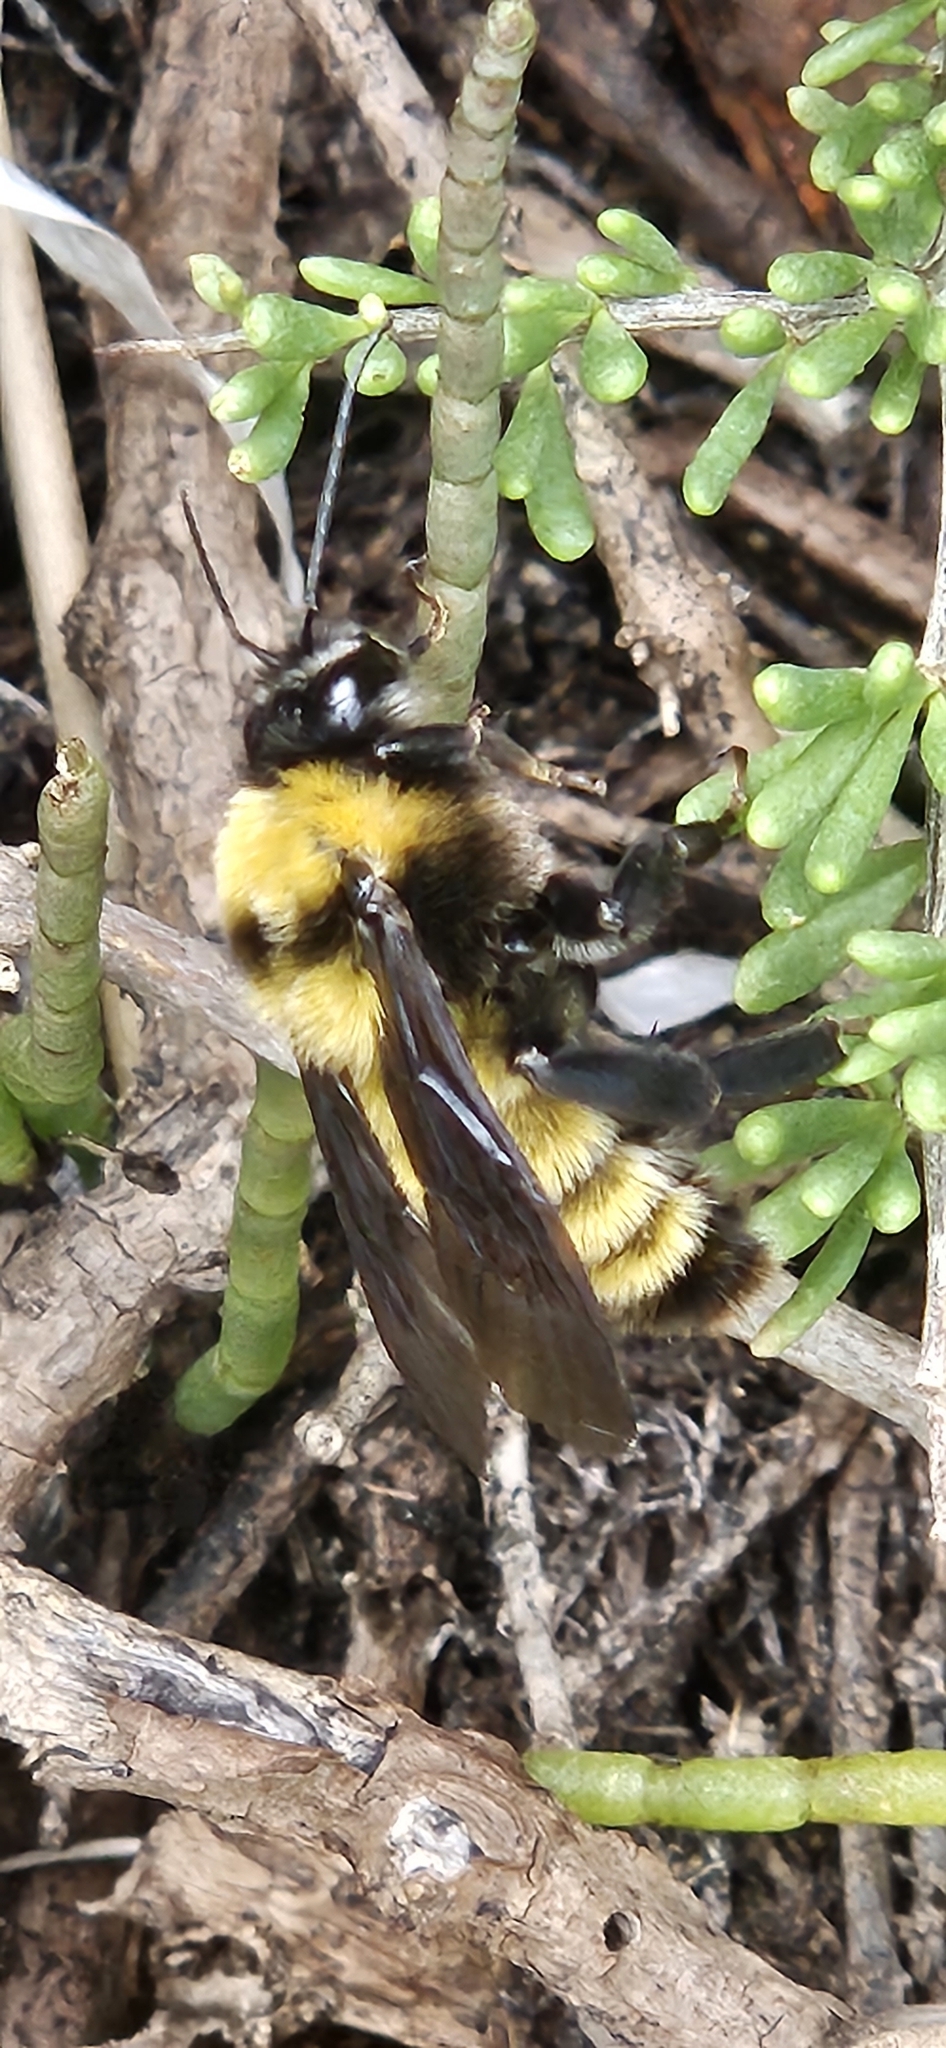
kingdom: Animalia
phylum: Arthropoda
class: Insecta
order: Hymenoptera
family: Apidae
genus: Bombus
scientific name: Bombus sonorus
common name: Sonoran bumble bee
